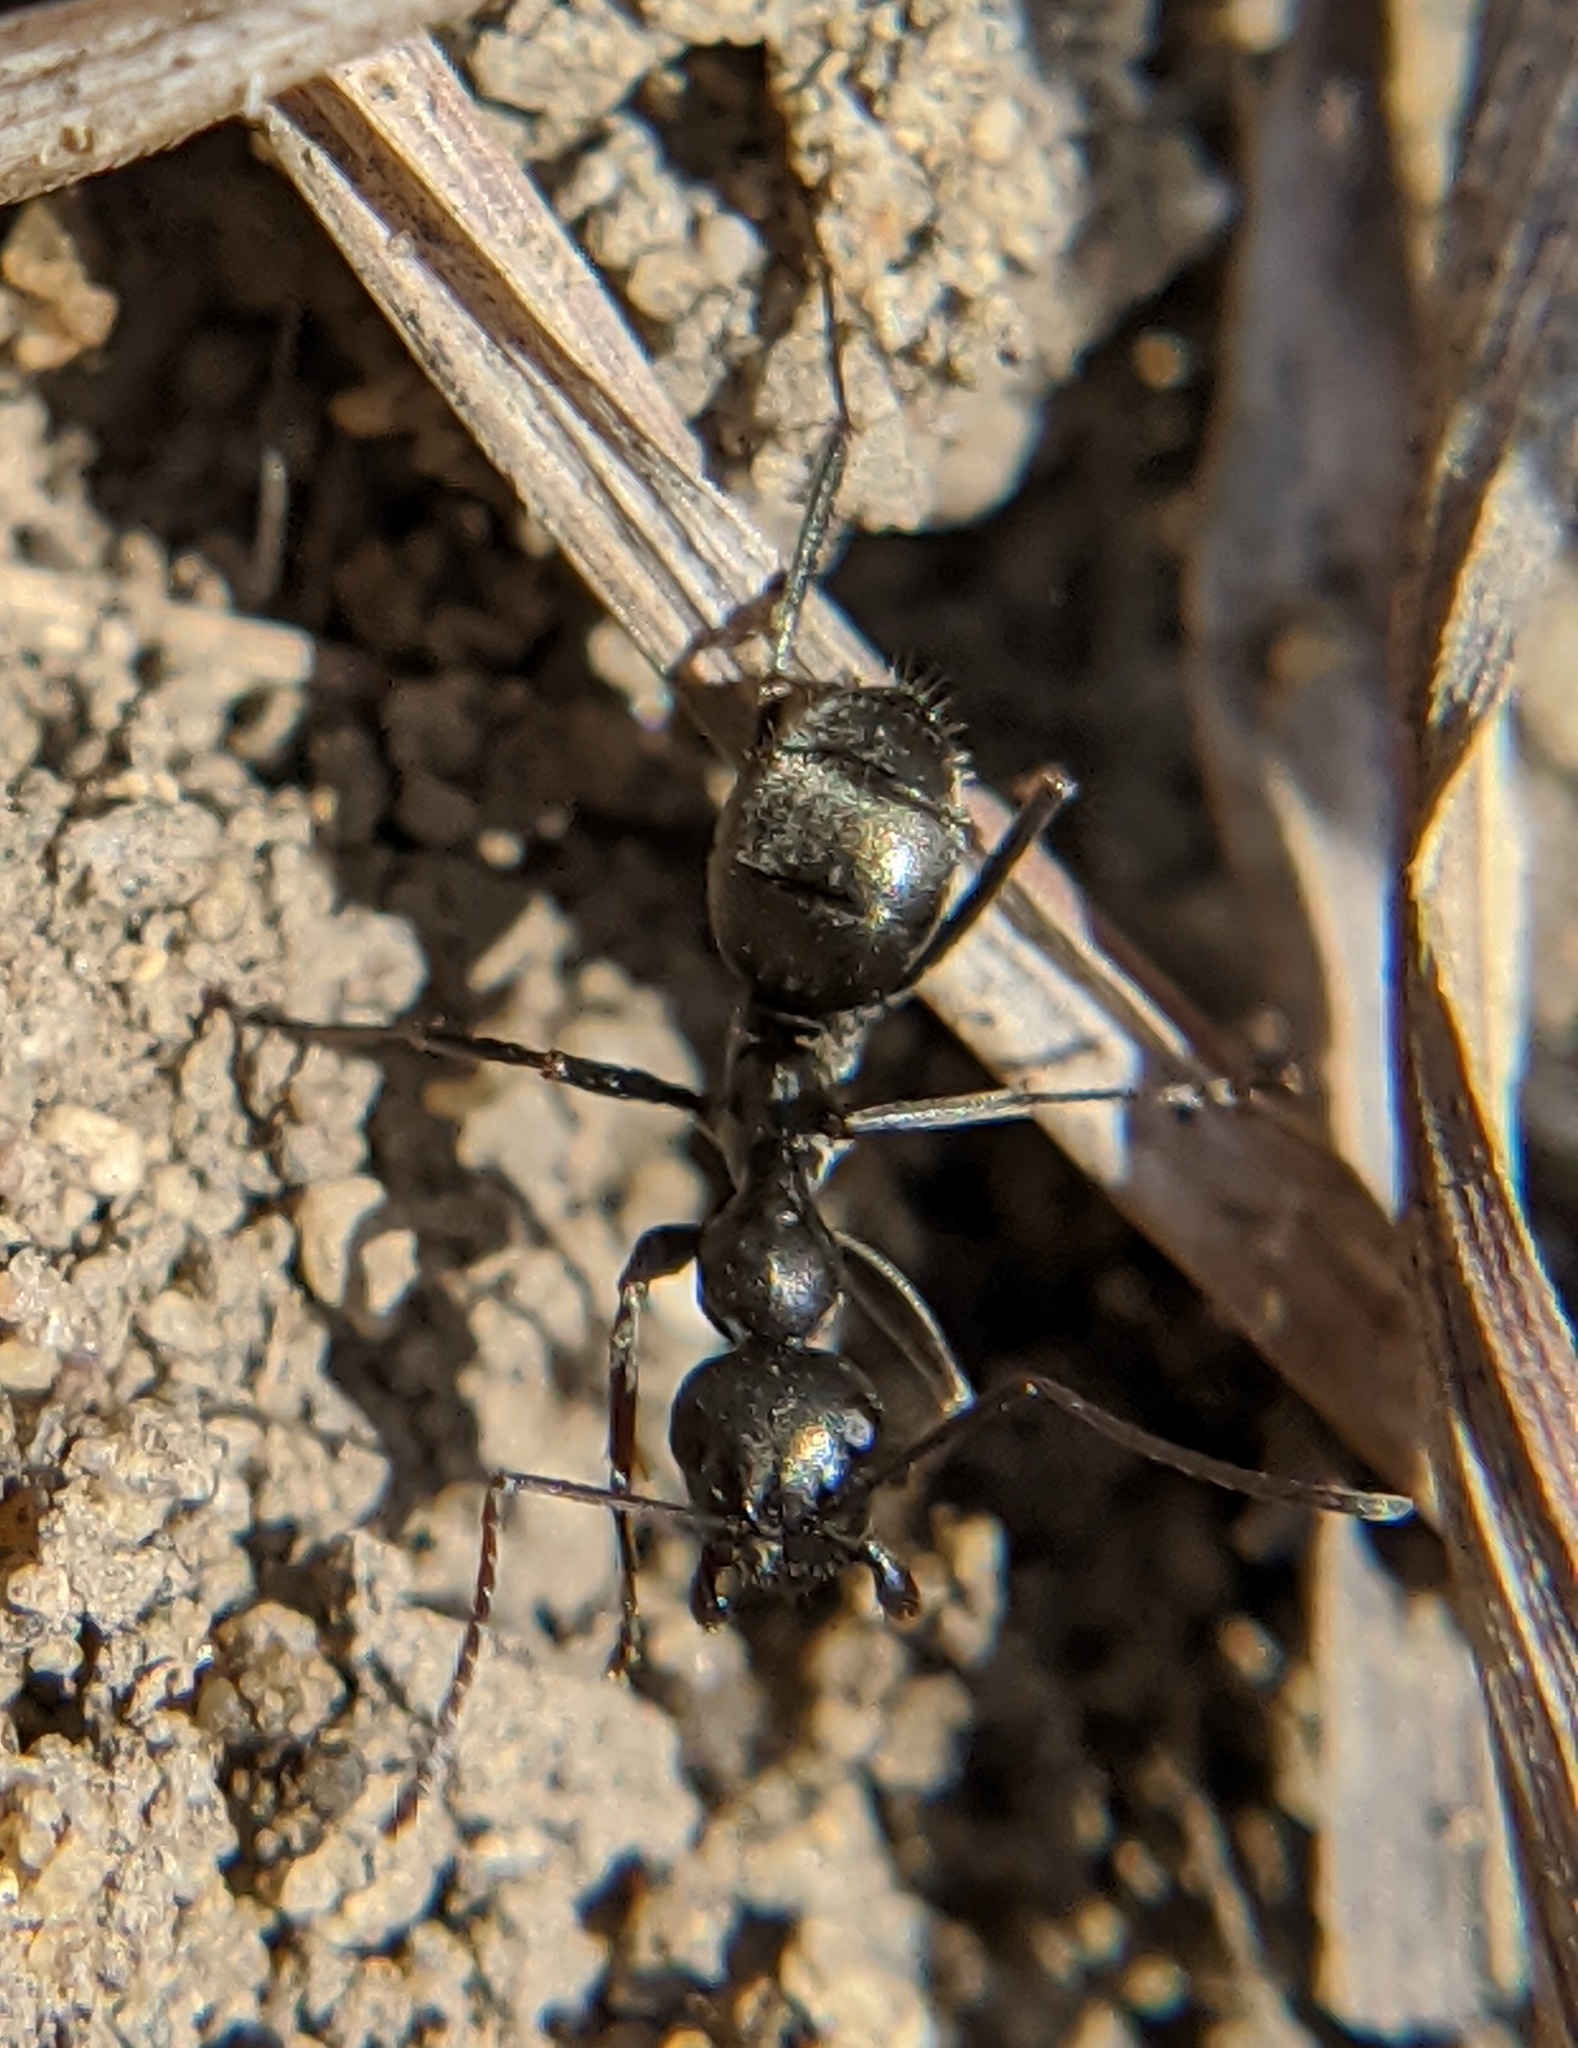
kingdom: Animalia
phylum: Arthropoda
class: Insecta
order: Hymenoptera
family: Formicidae
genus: Formica
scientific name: Formica subsericea
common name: Silky field ant
